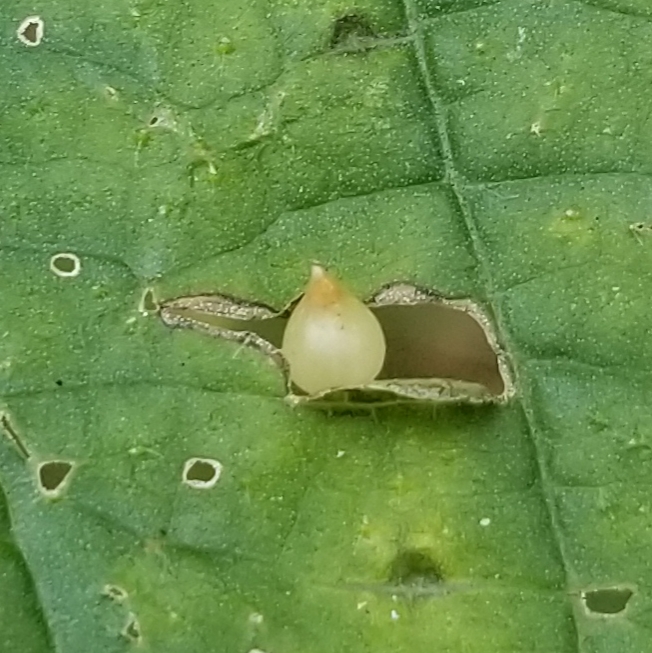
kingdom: Plantae
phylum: Tracheophyta
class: Magnoliopsida
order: Rosales
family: Urticaceae
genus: Laportea
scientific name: Laportea canadensis
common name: Canada nettle
